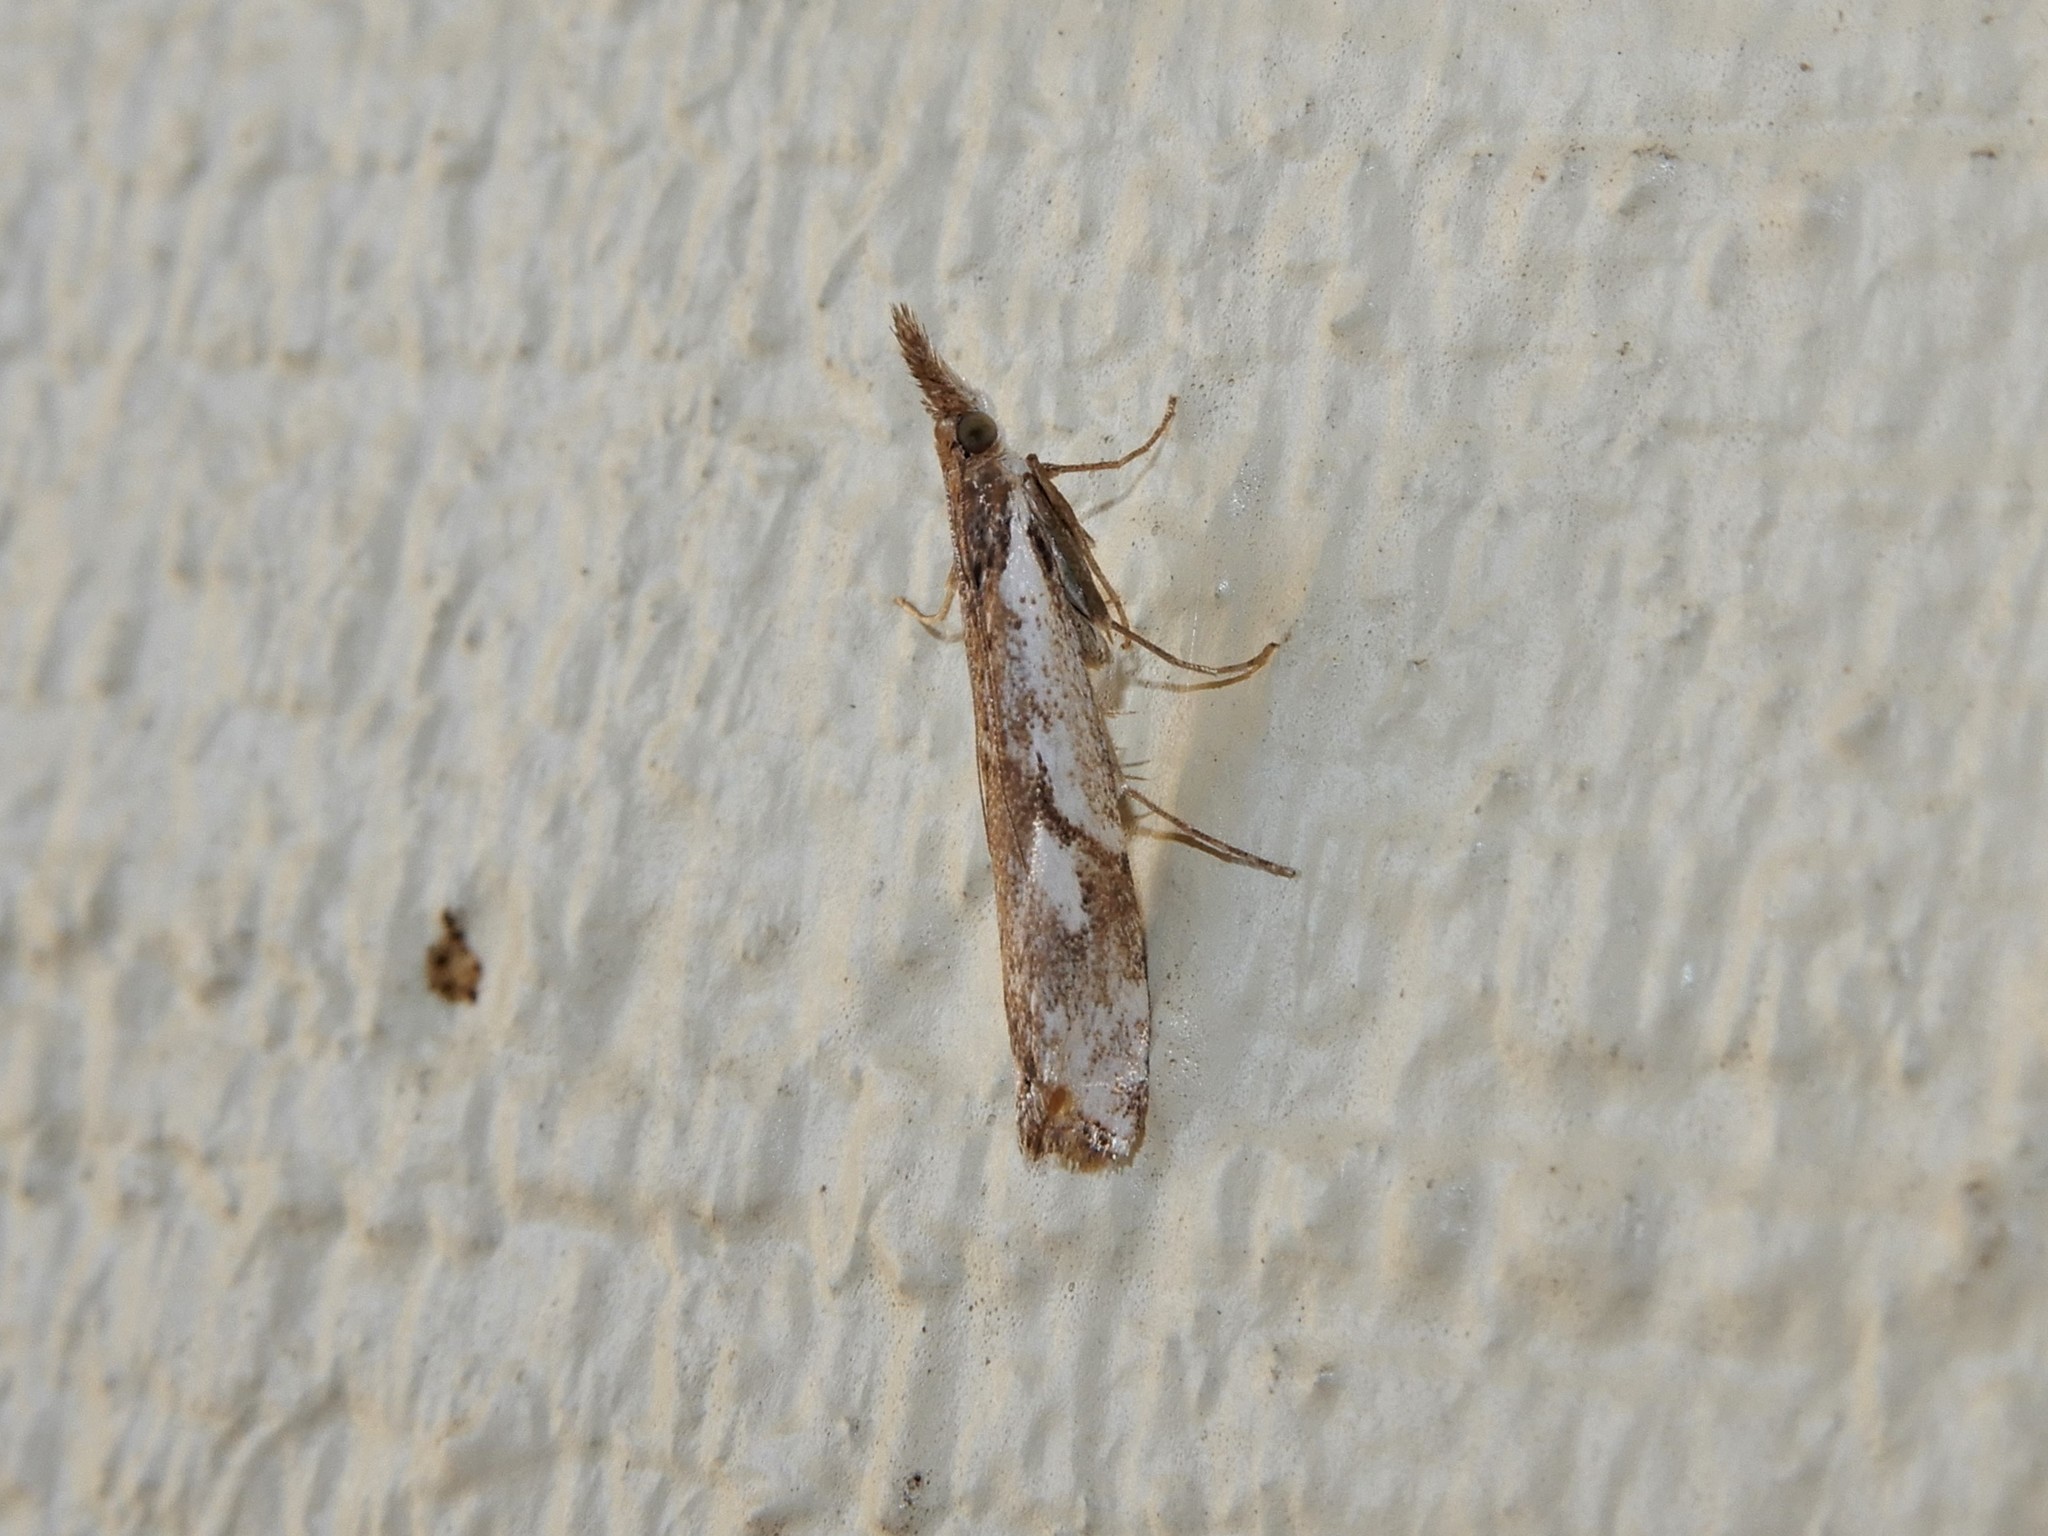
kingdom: Animalia
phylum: Arthropoda
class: Insecta
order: Lepidoptera
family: Crambidae
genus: Orocrambus
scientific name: Orocrambus vulgaris
